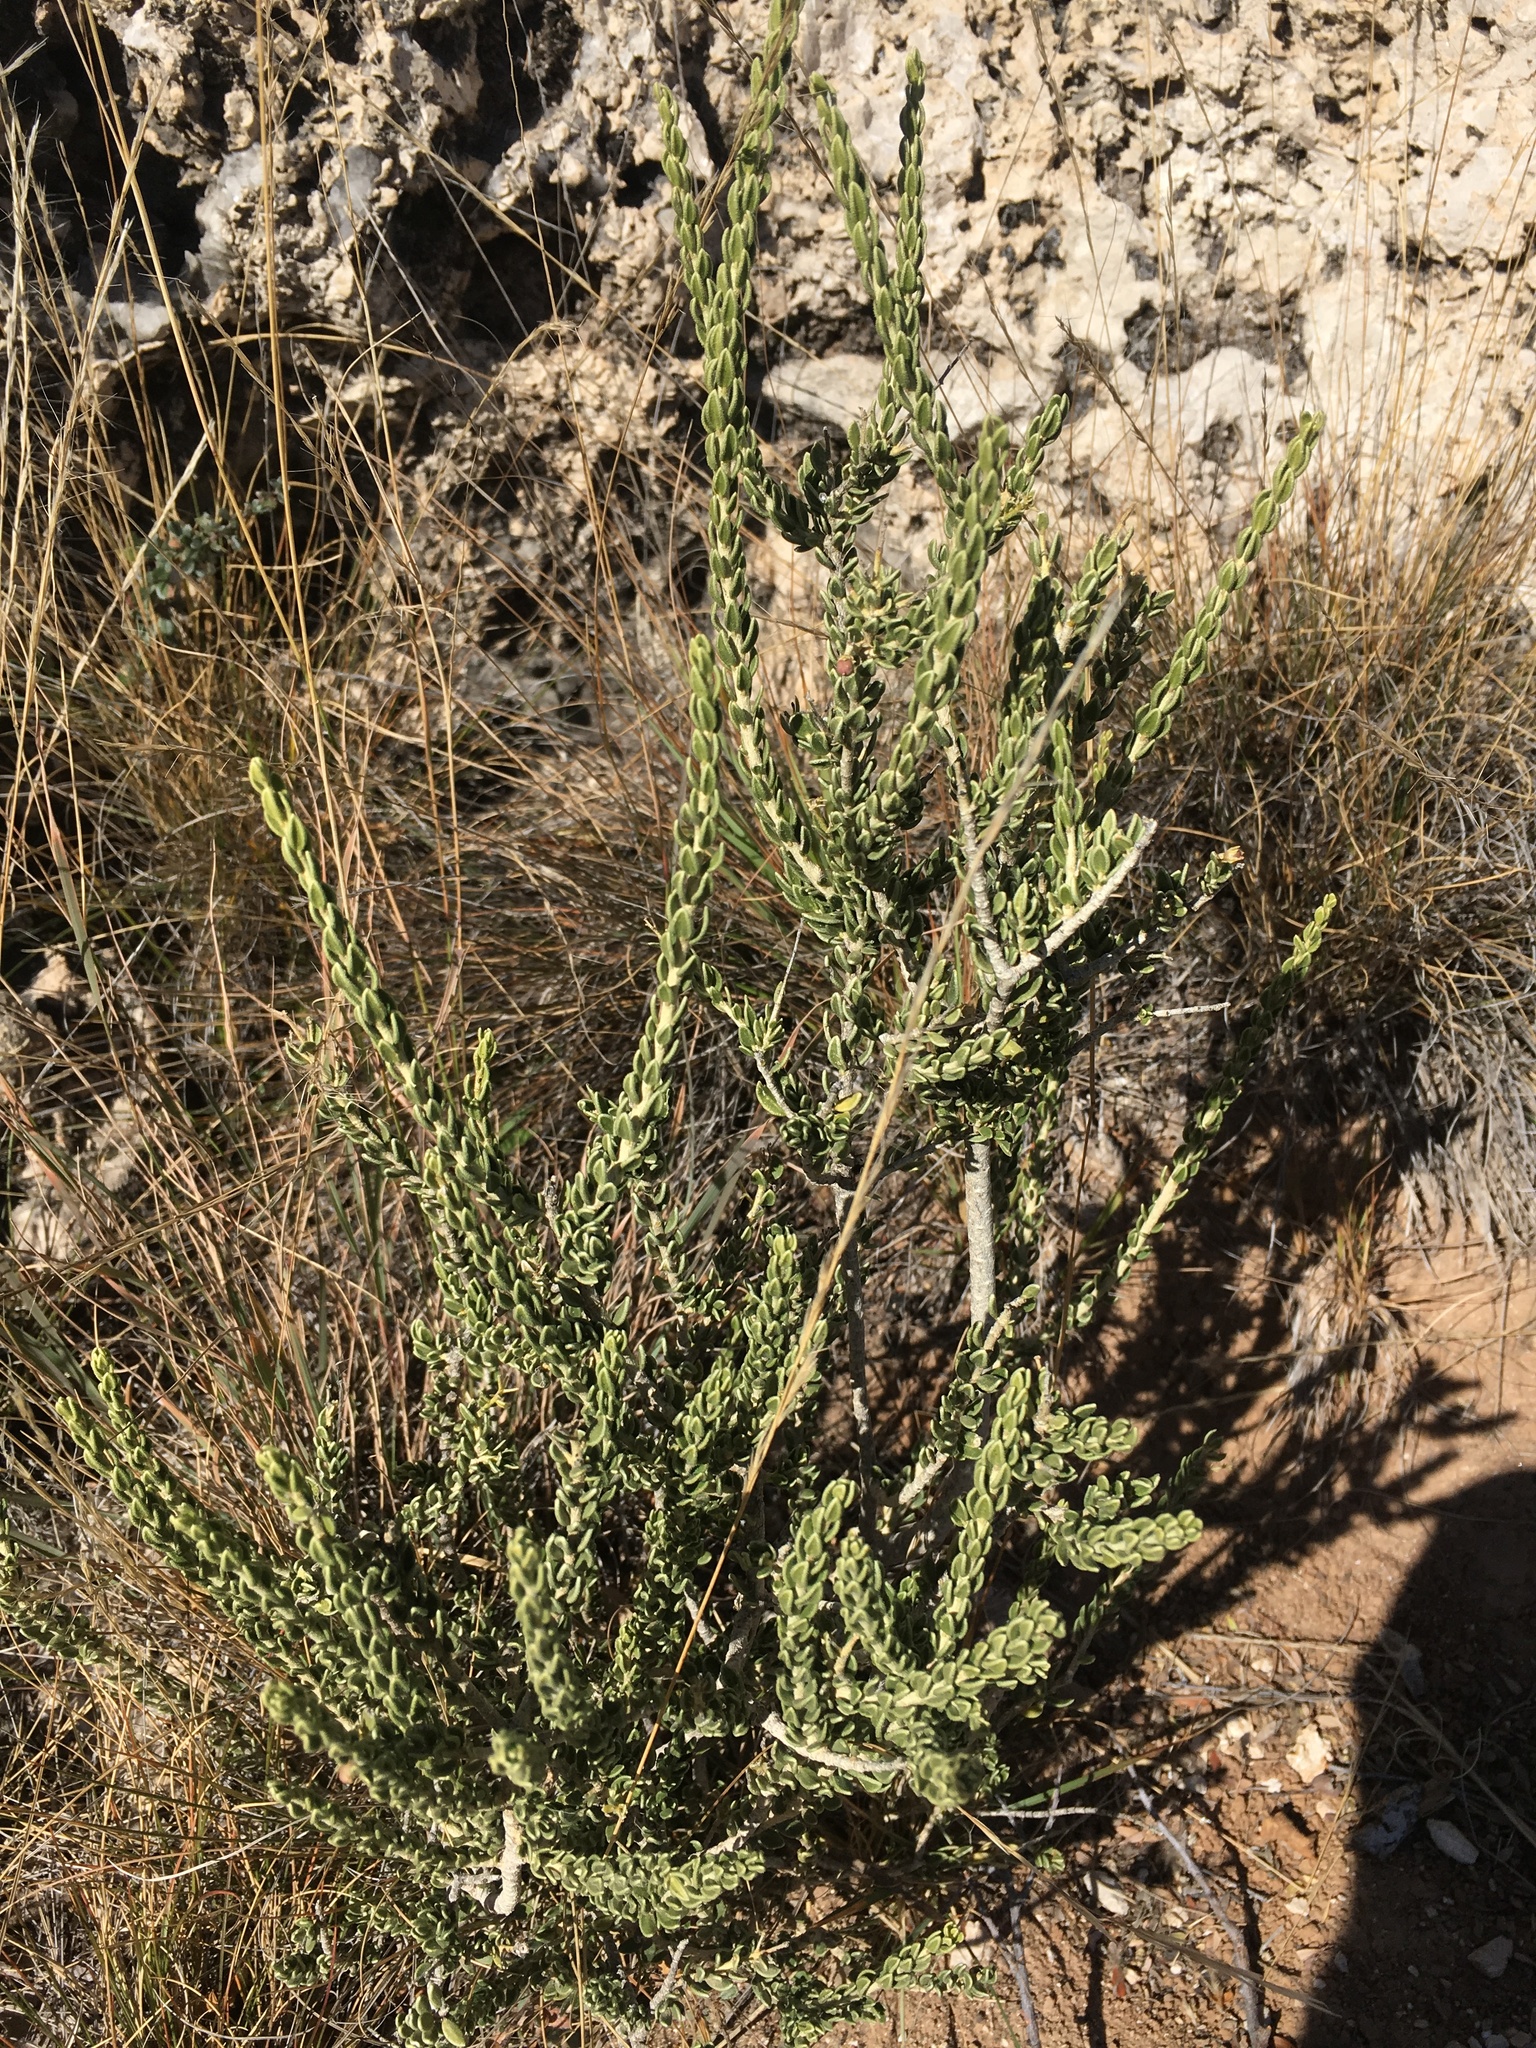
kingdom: Plantae
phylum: Tracheophyta
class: Magnoliopsida
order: Celastrales
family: Celastraceae
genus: Mortonia
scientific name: Mortonia scabrella
